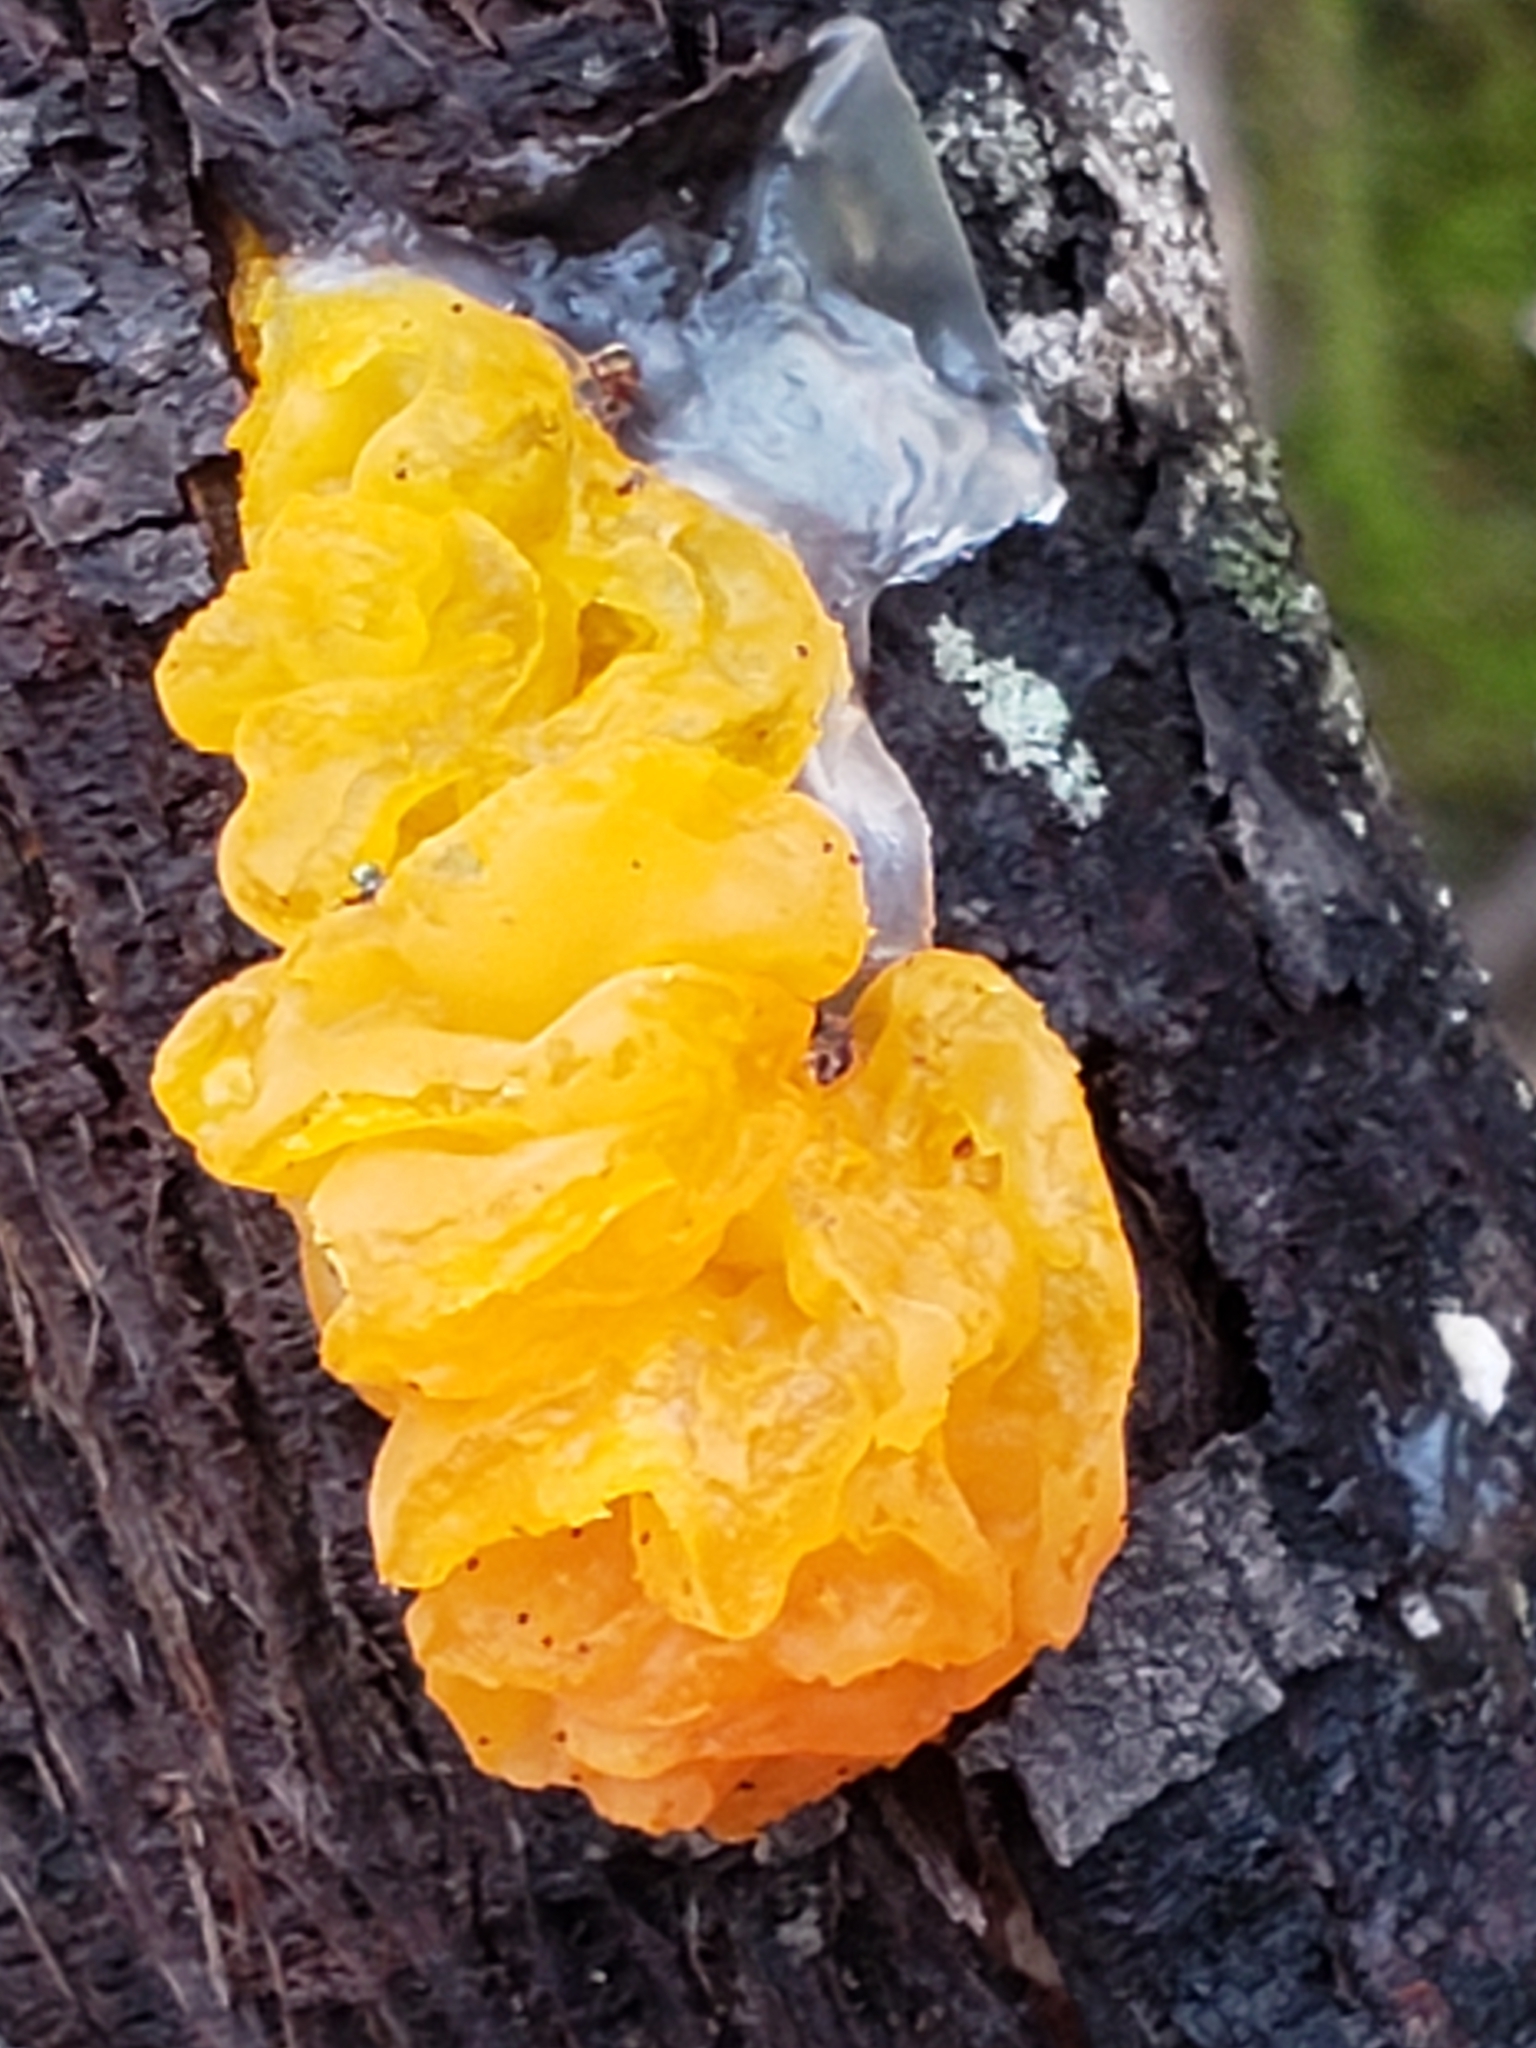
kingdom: Fungi
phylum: Basidiomycota
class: Tremellomycetes
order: Tremellales
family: Tremellaceae
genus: Tremella
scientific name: Tremella mesenterica
